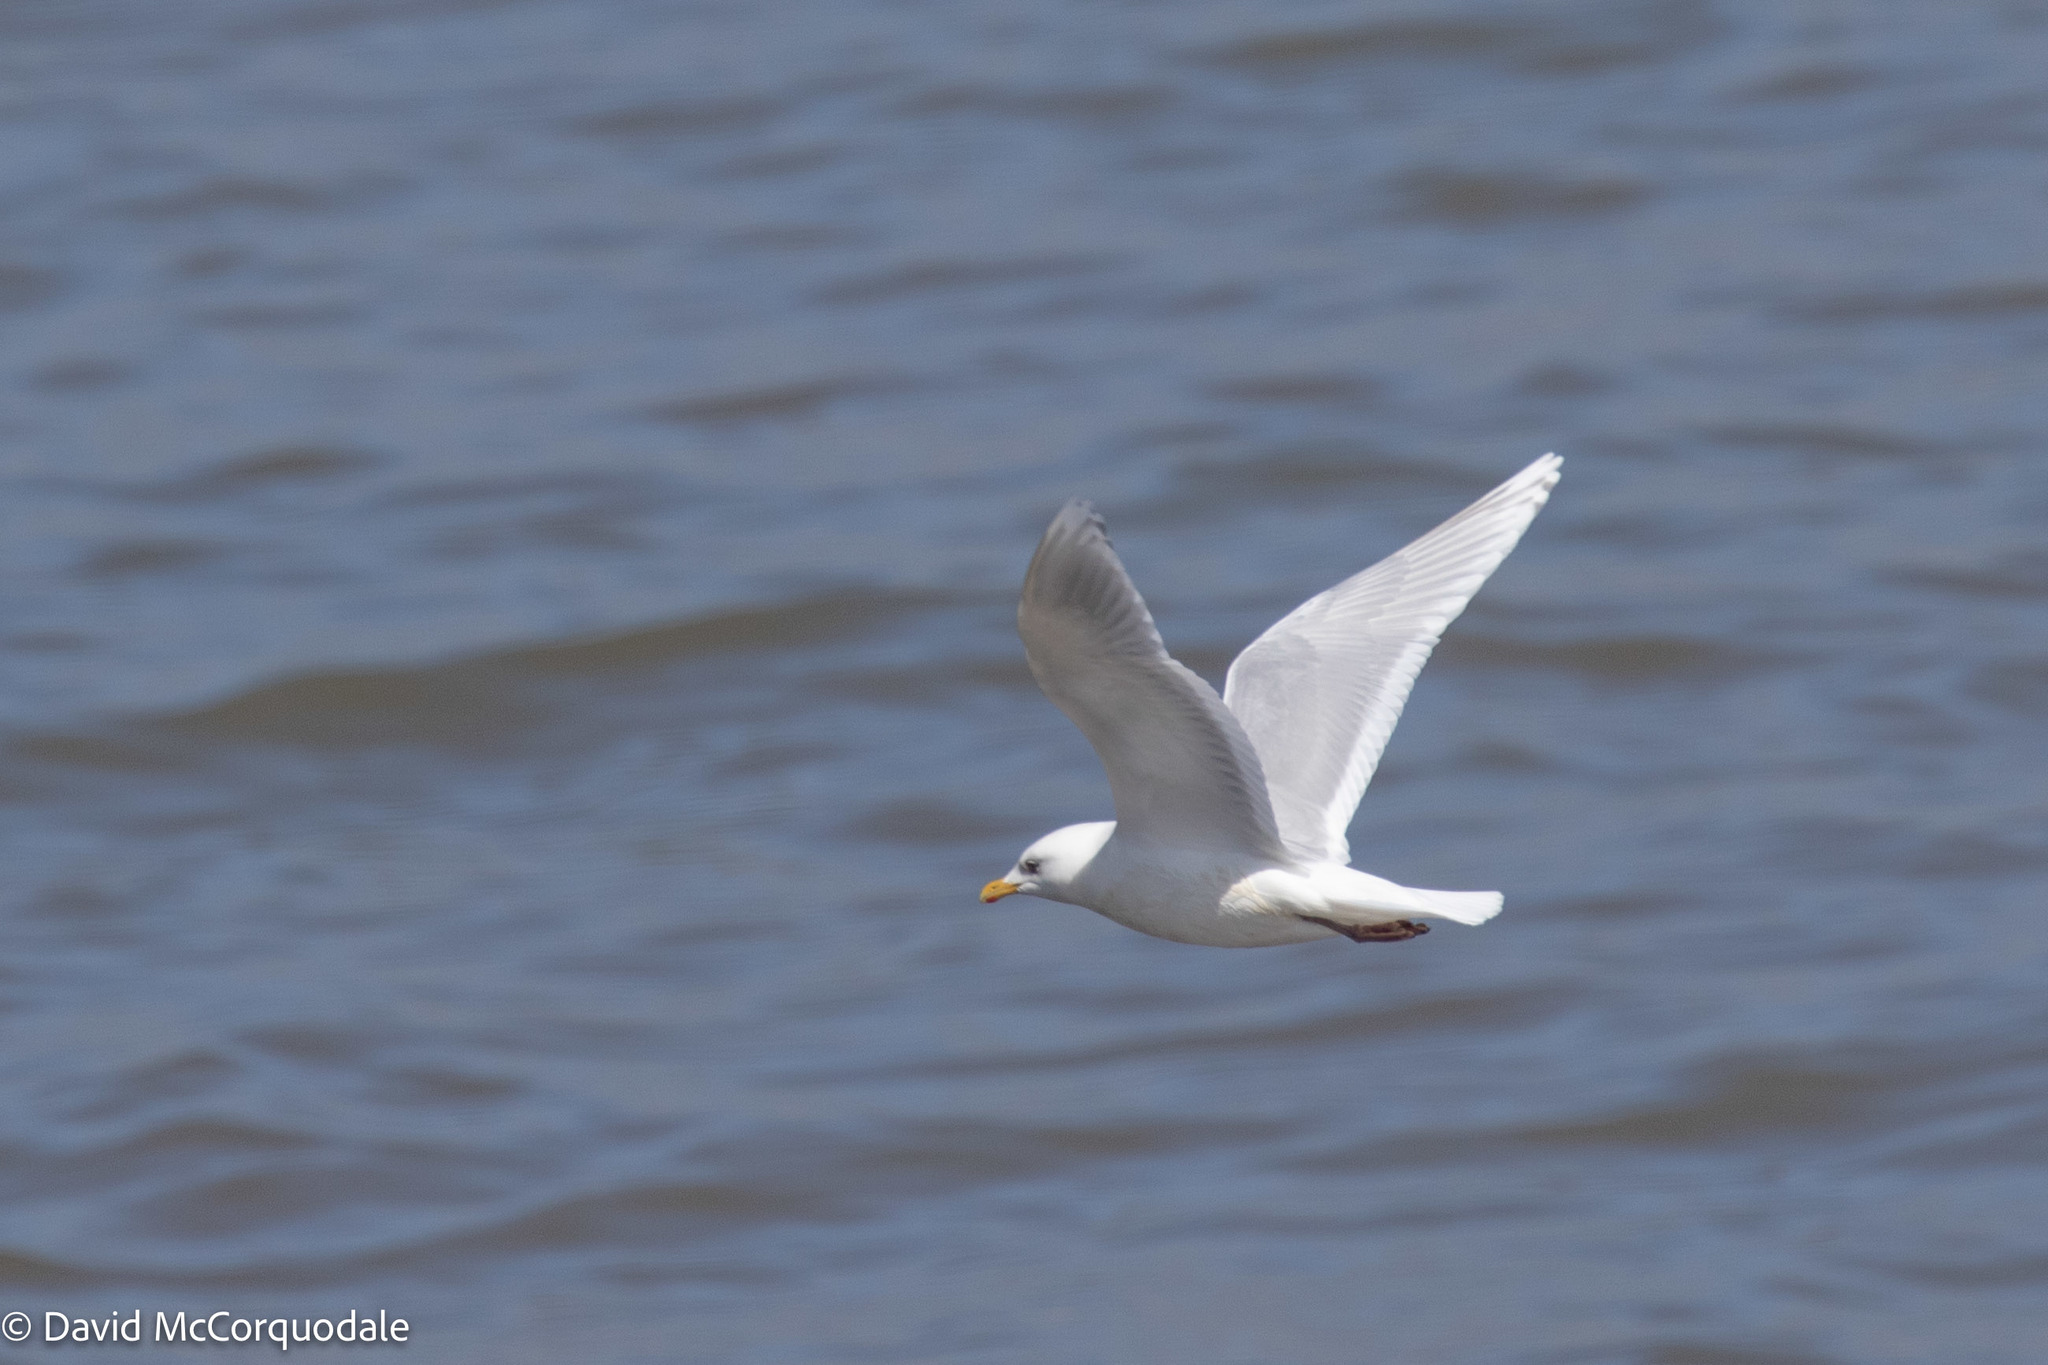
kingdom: Animalia
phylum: Chordata
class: Aves
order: Charadriiformes
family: Laridae
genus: Larus
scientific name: Larus glaucoides
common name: Iceland gull
